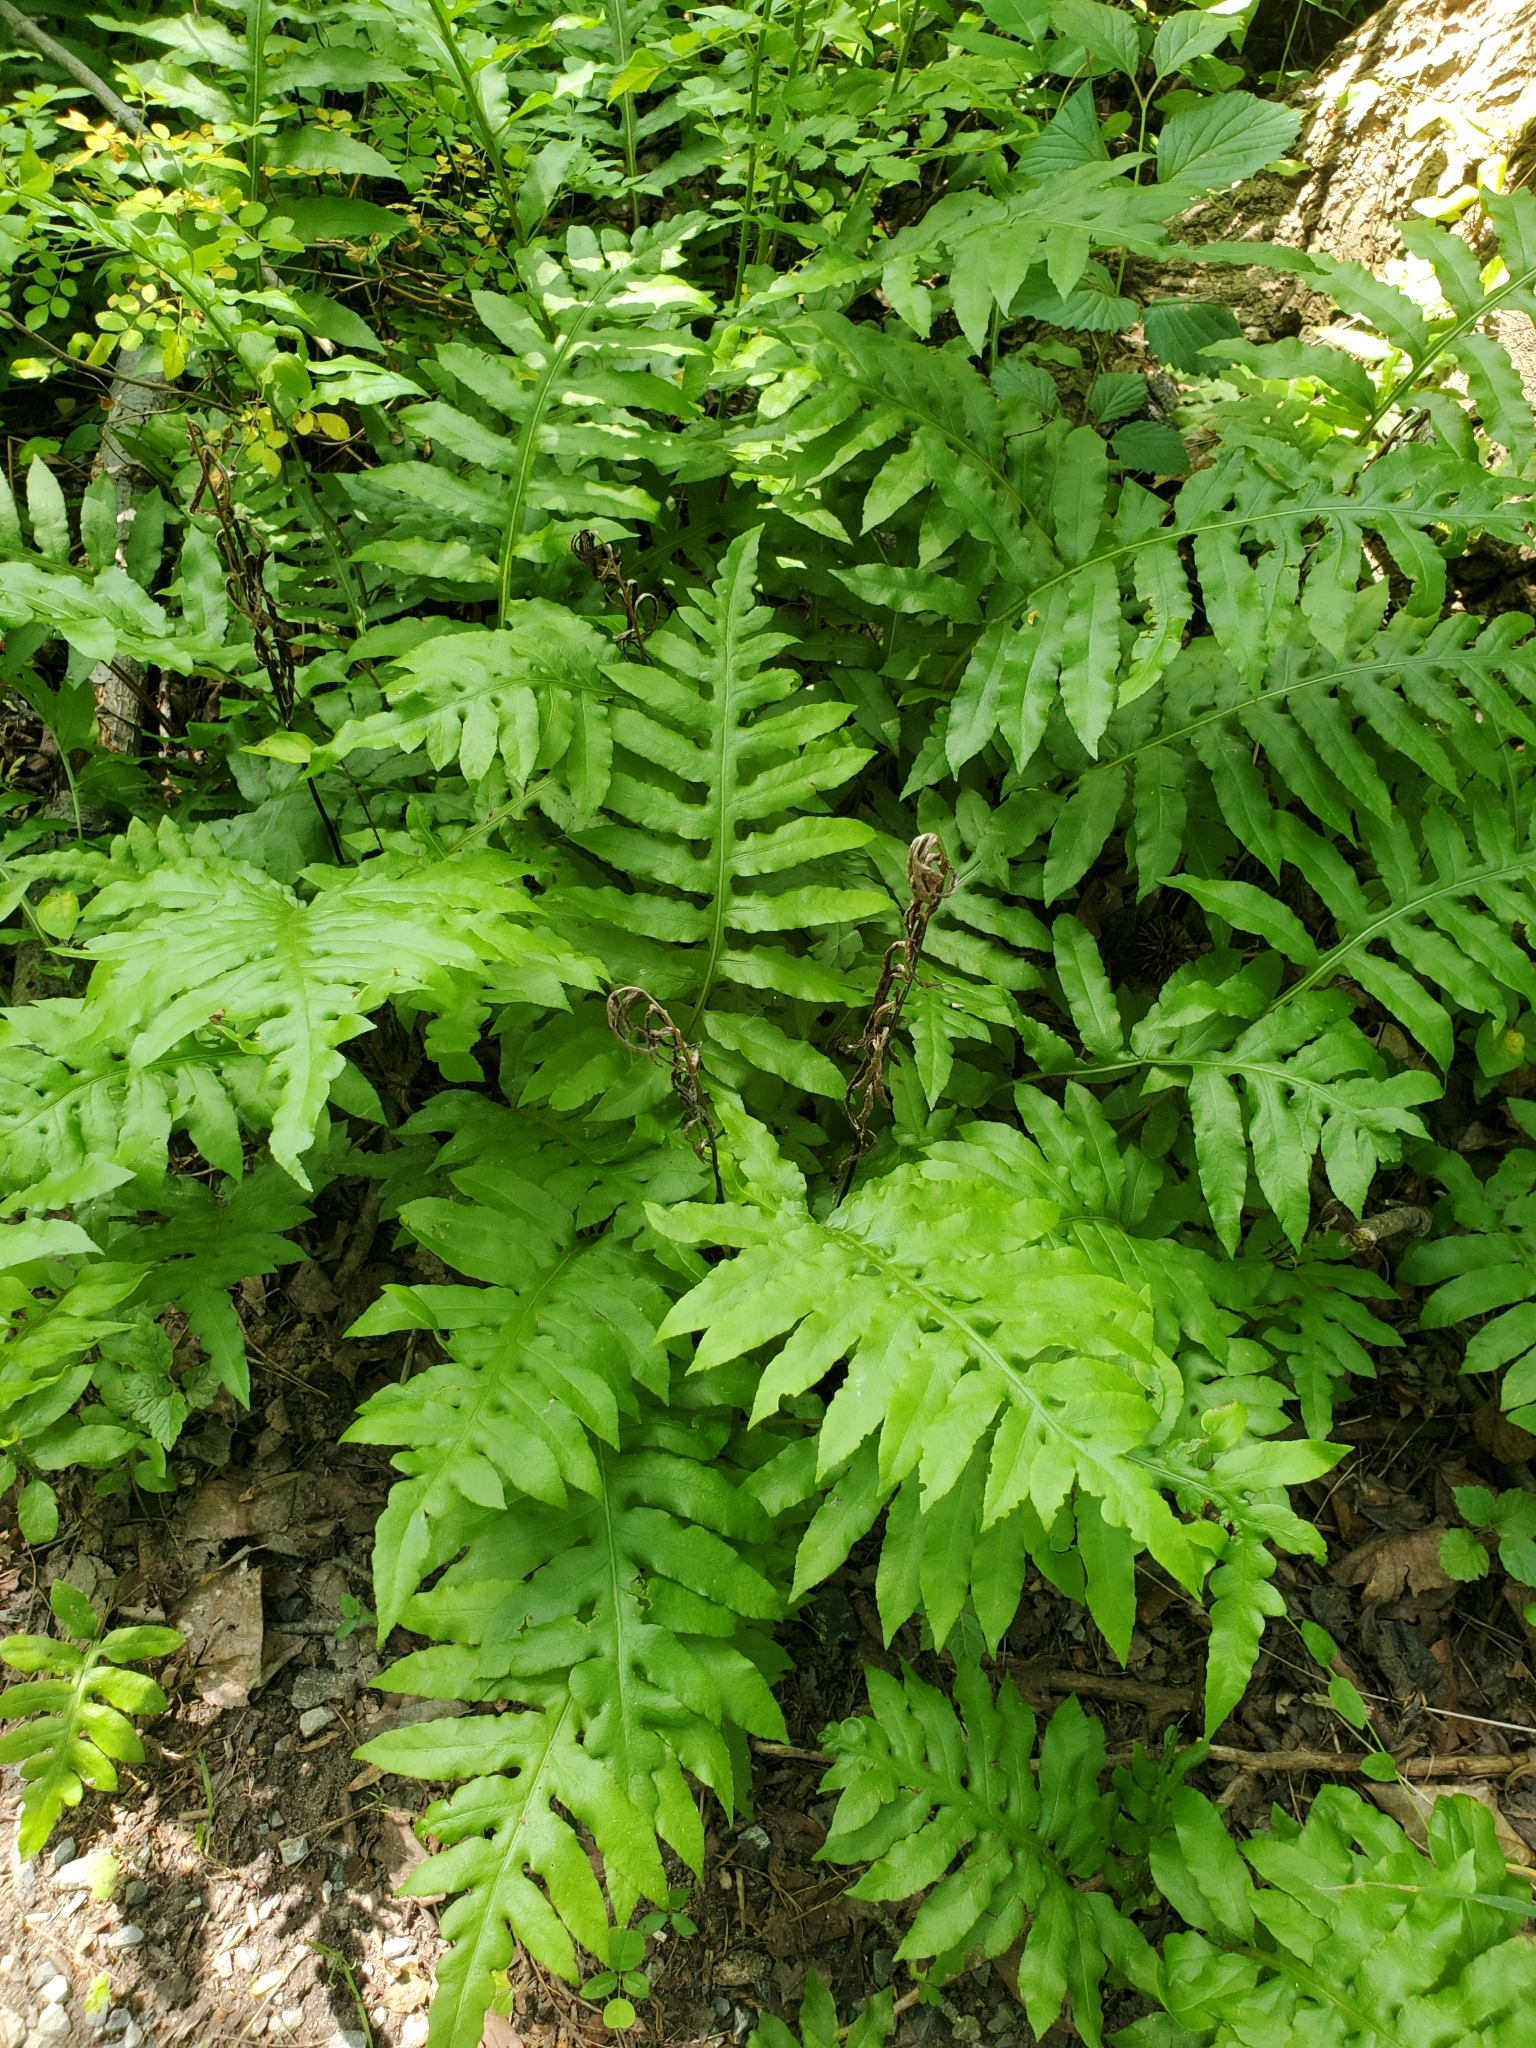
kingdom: Plantae
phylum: Tracheophyta
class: Polypodiopsida
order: Polypodiales
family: Blechnaceae
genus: Lorinseria
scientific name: Lorinseria areolata
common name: Dwarf chain fern
